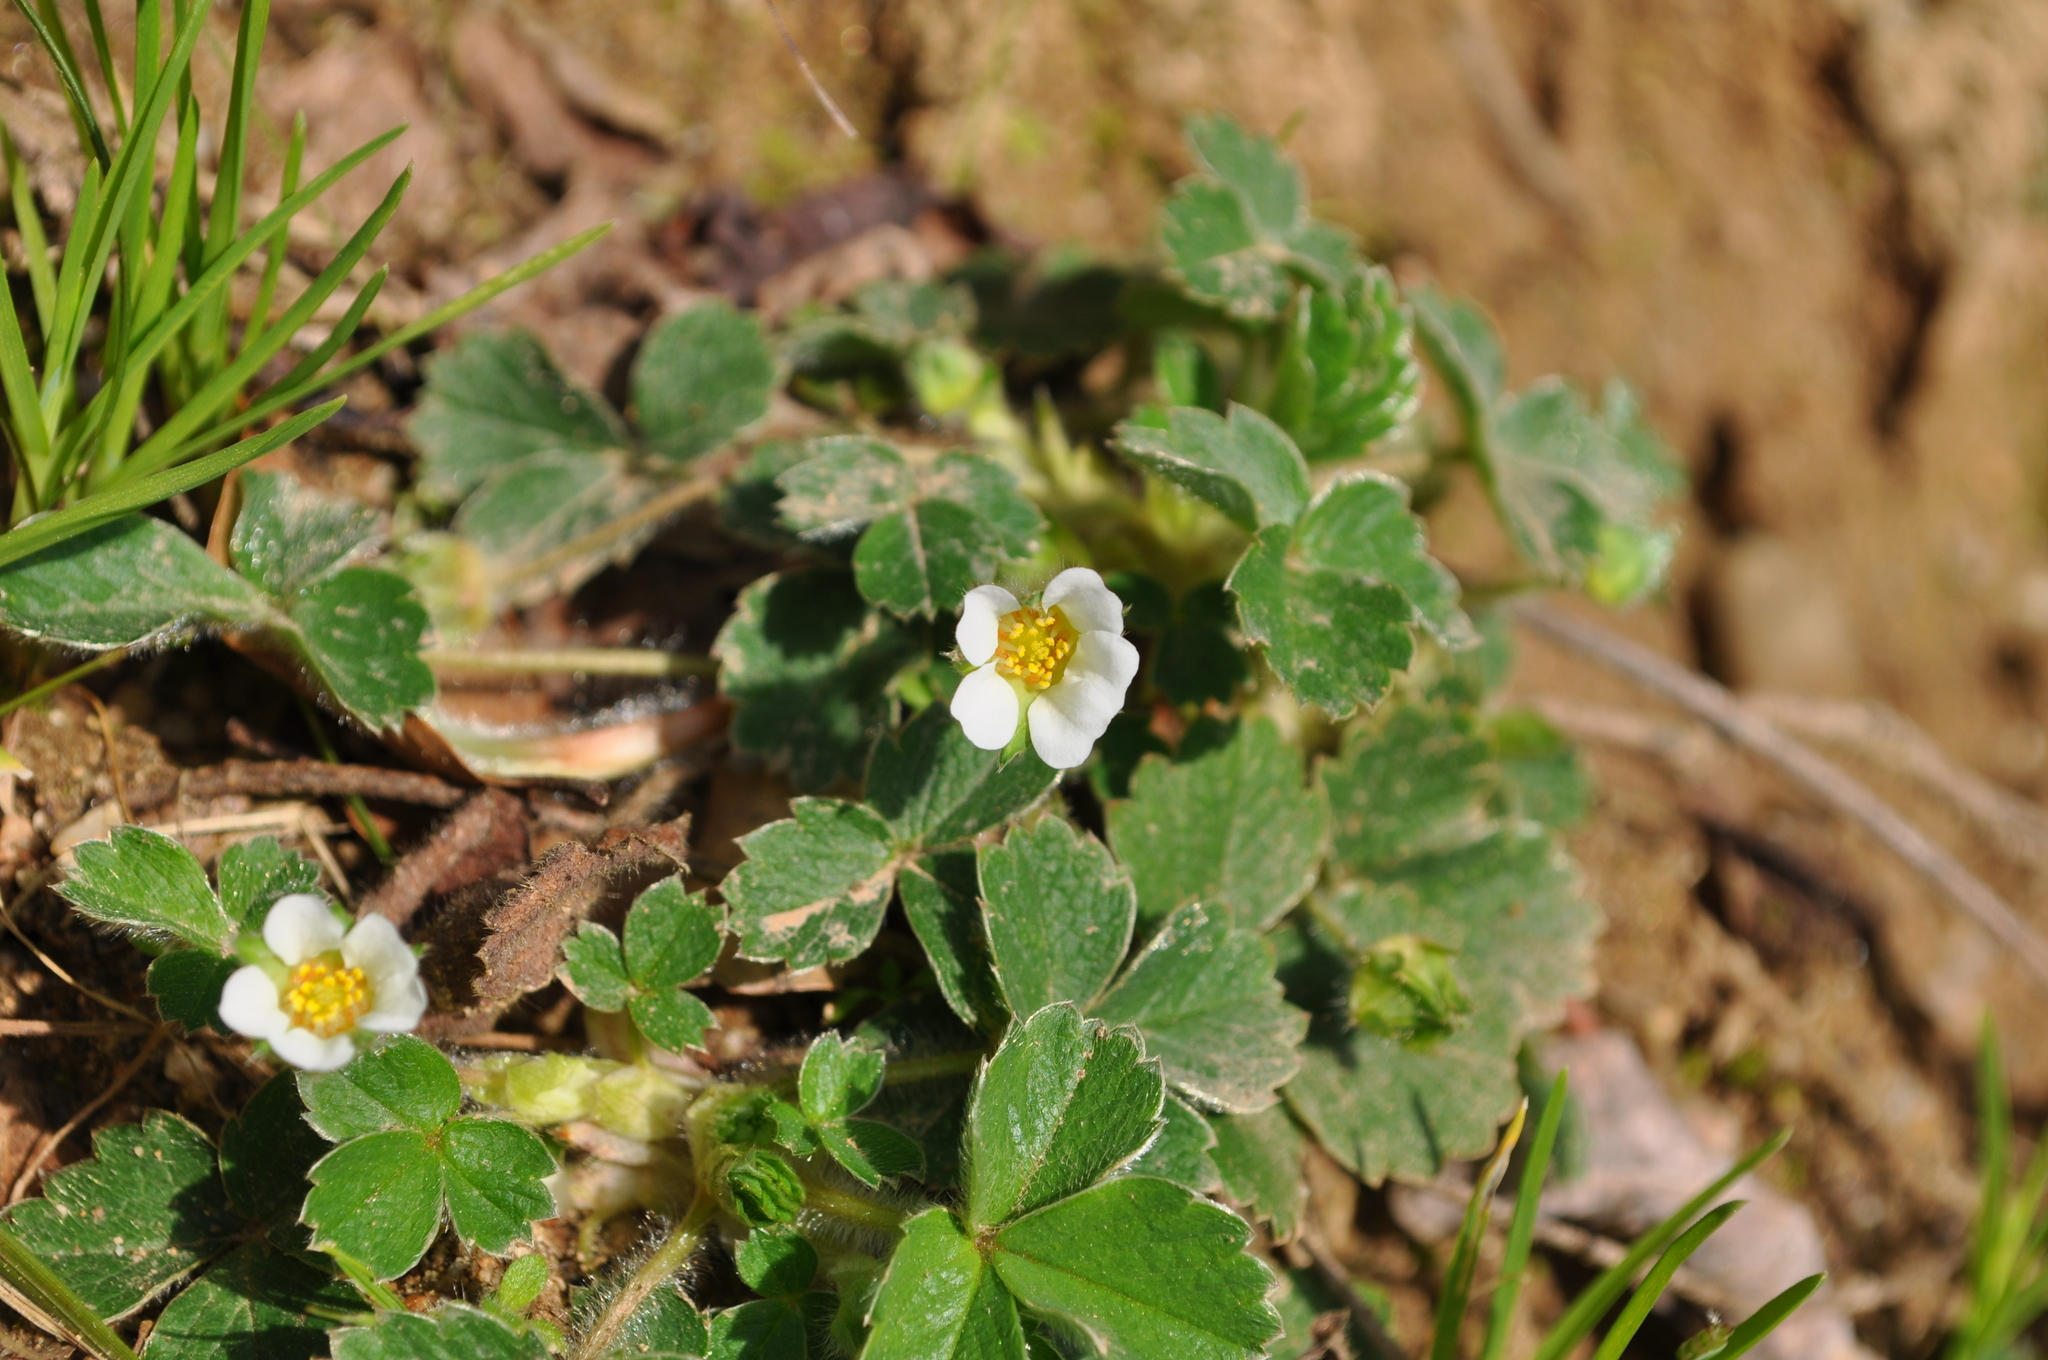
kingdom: Plantae
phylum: Tracheophyta
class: Magnoliopsida
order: Rosales
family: Rosaceae
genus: Potentilla
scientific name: Potentilla sterilis
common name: Barren strawberry
